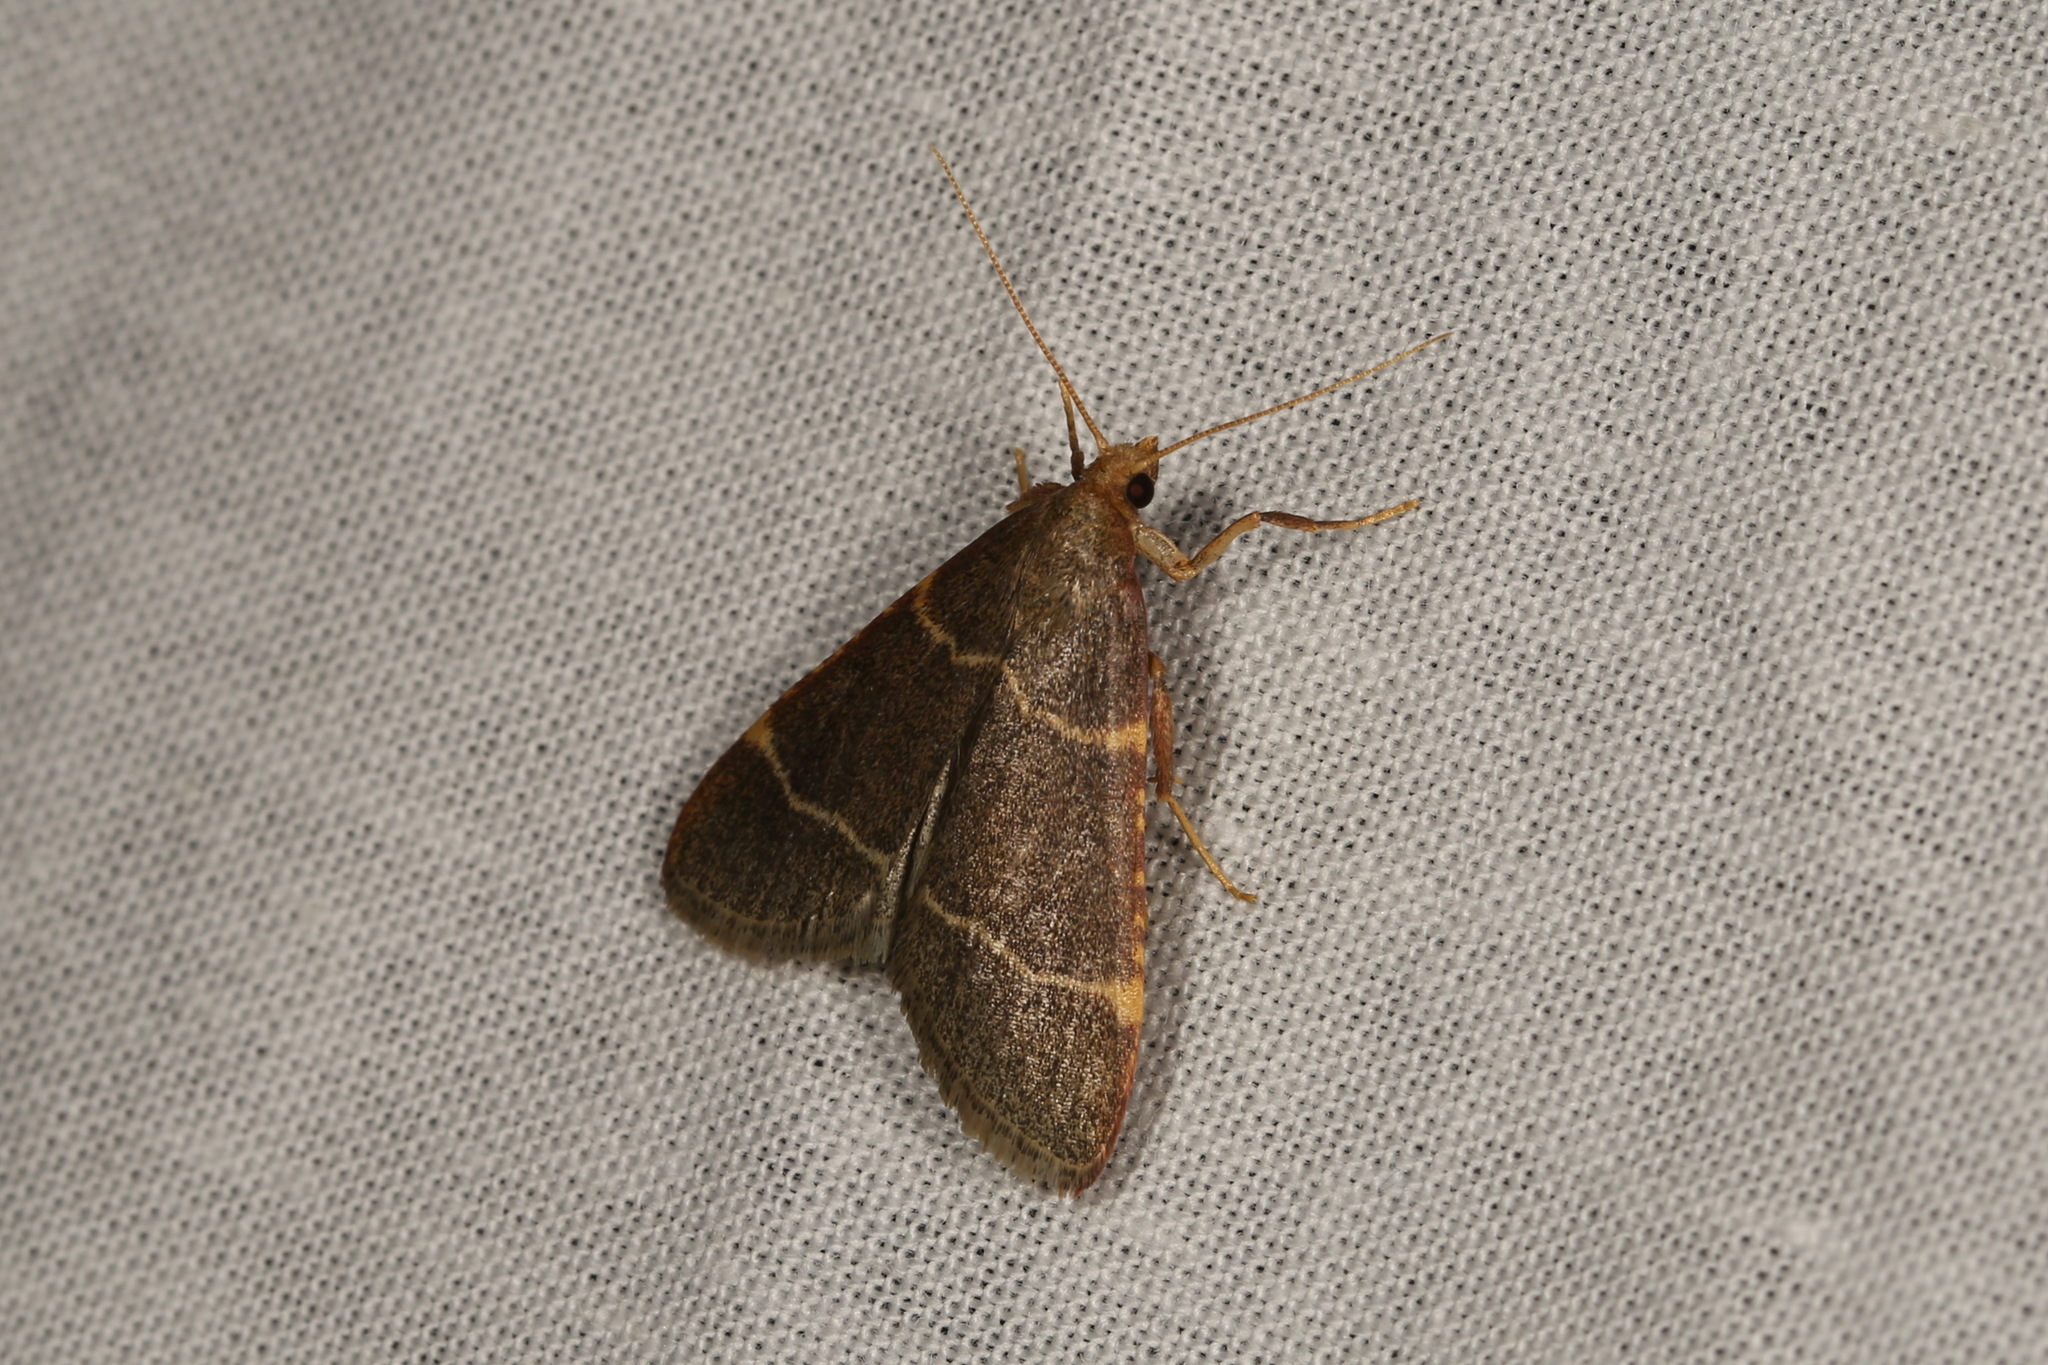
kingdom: Animalia
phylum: Arthropoda
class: Insecta
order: Lepidoptera
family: Pyralidae
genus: Hypsopygia
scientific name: Hypsopygia glaucinalis
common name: Double-striped tabby
